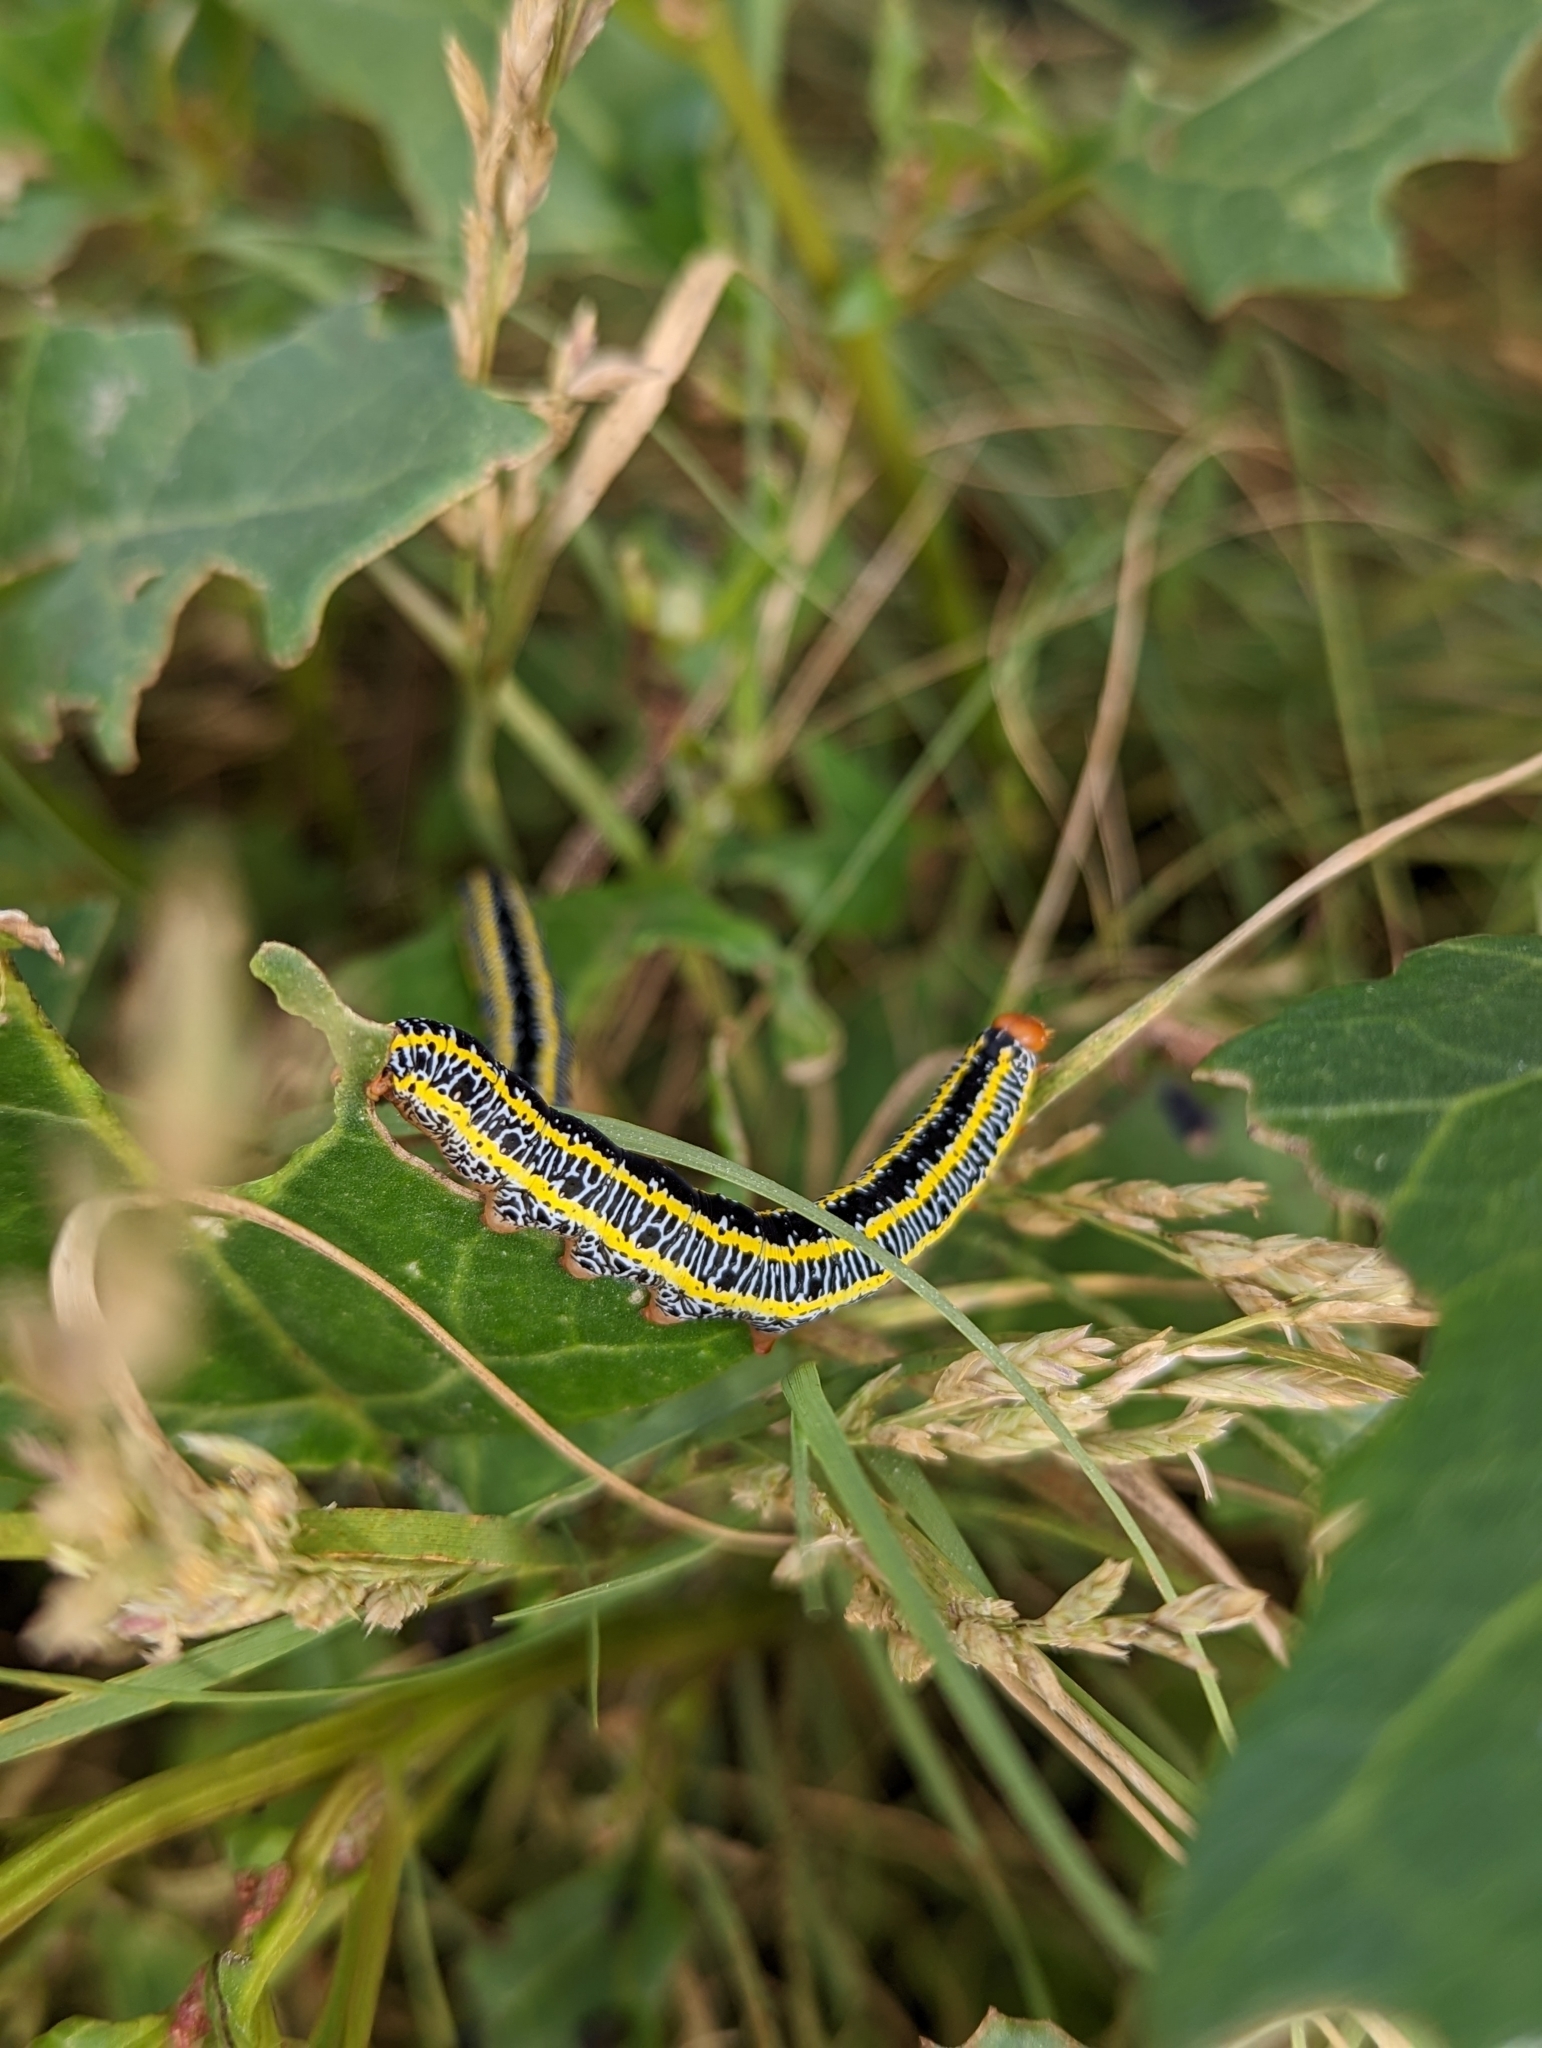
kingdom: Animalia
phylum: Arthropoda
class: Insecta
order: Lepidoptera
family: Noctuidae
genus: Melanchra
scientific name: Melanchra picta
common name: Zebra caterpillar
